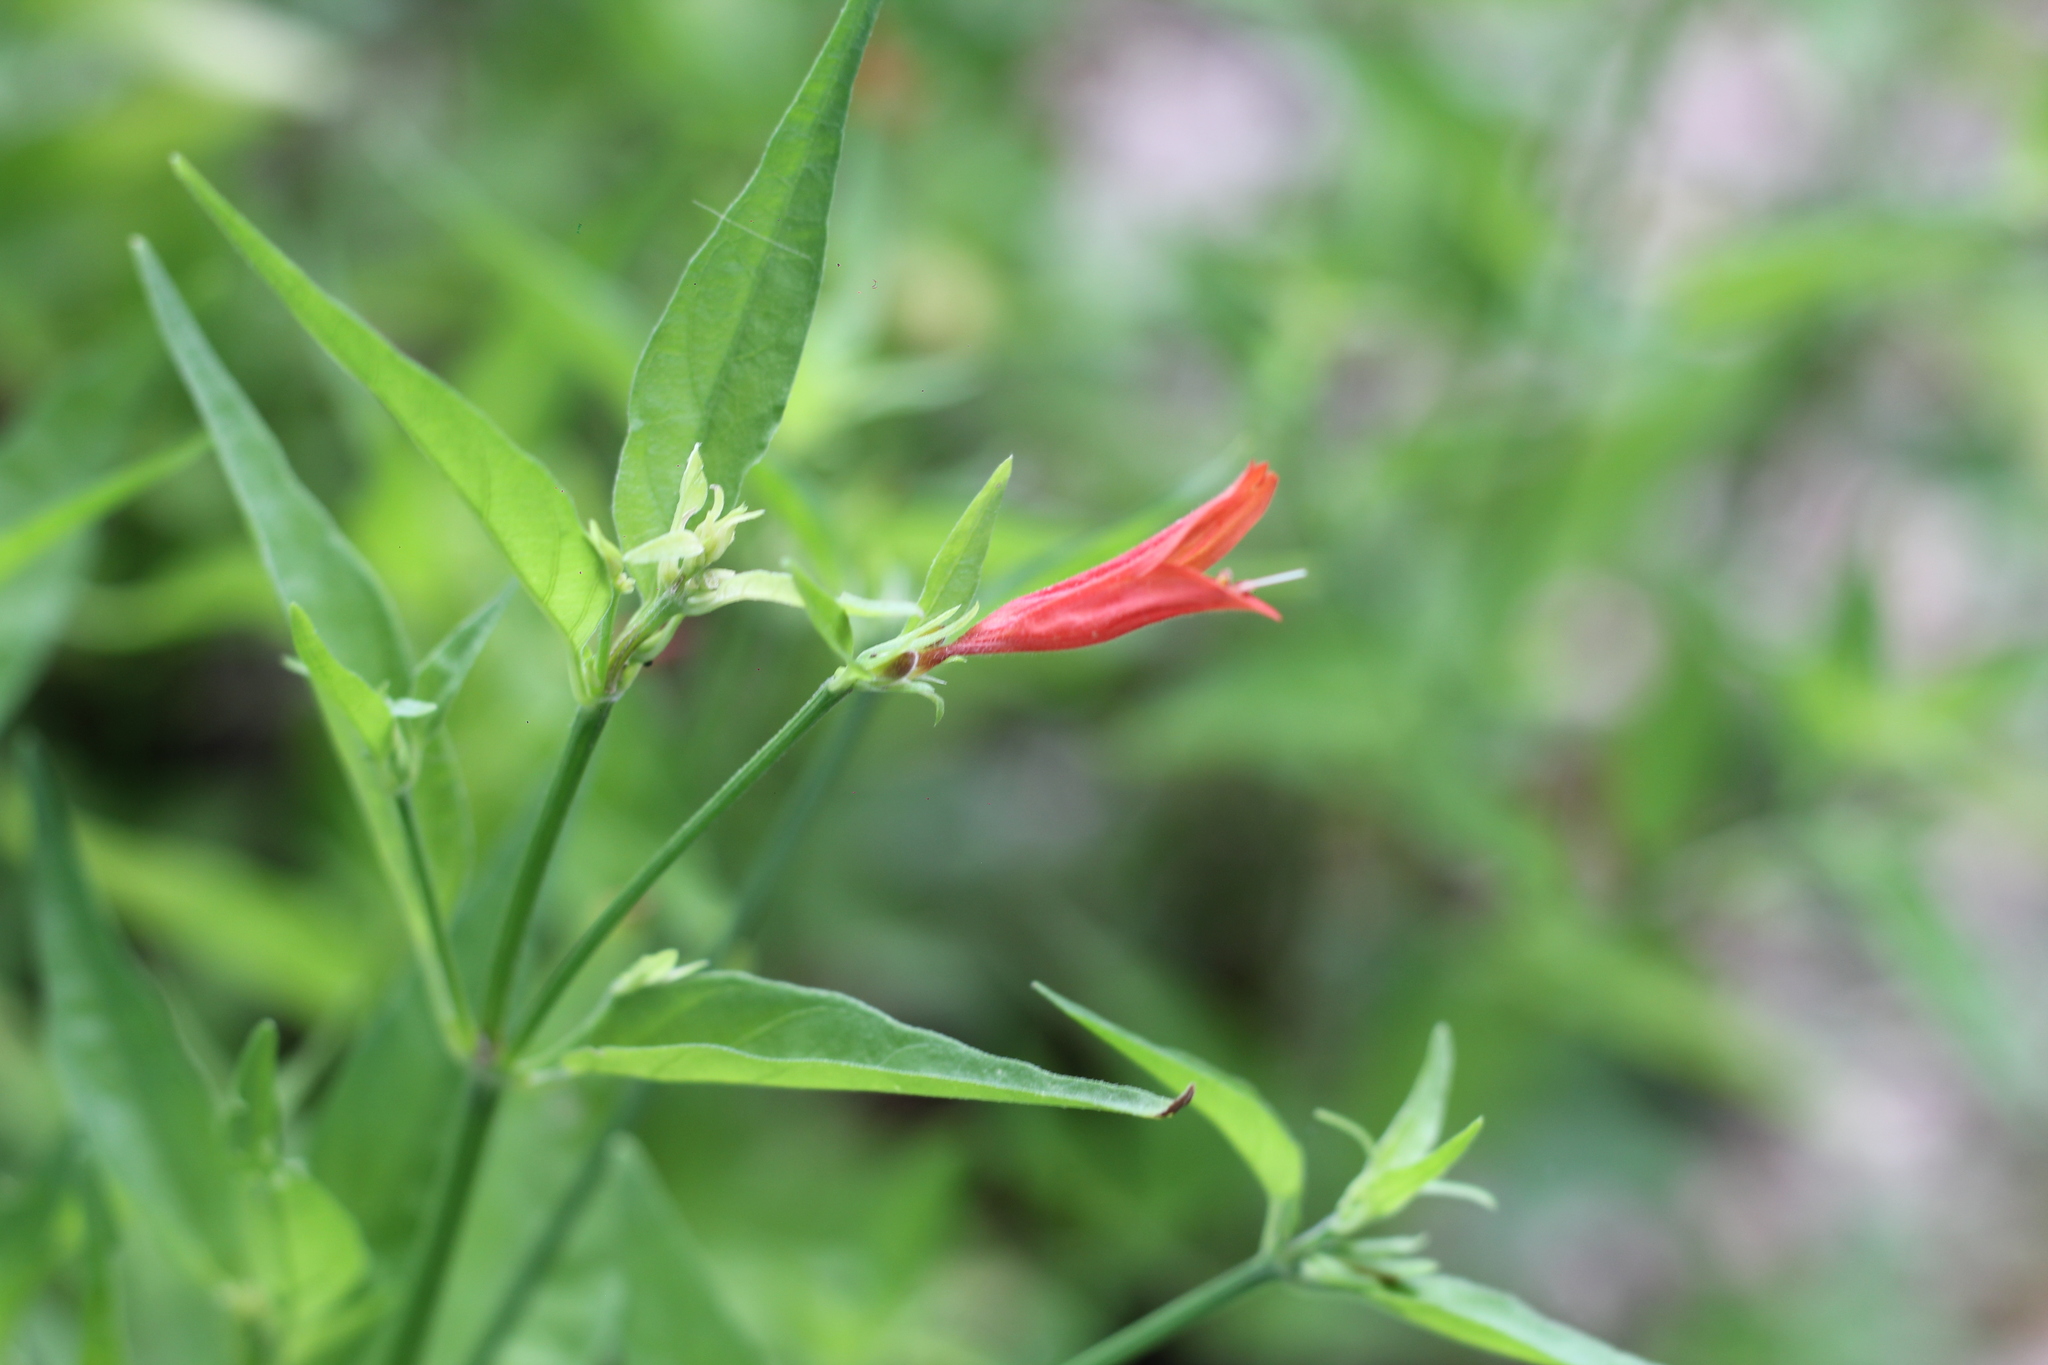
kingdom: Plantae
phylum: Tracheophyta
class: Magnoliopsida
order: Lamiales
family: Acanthaceae
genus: Dicliptera
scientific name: Dicliptera squarrosa
